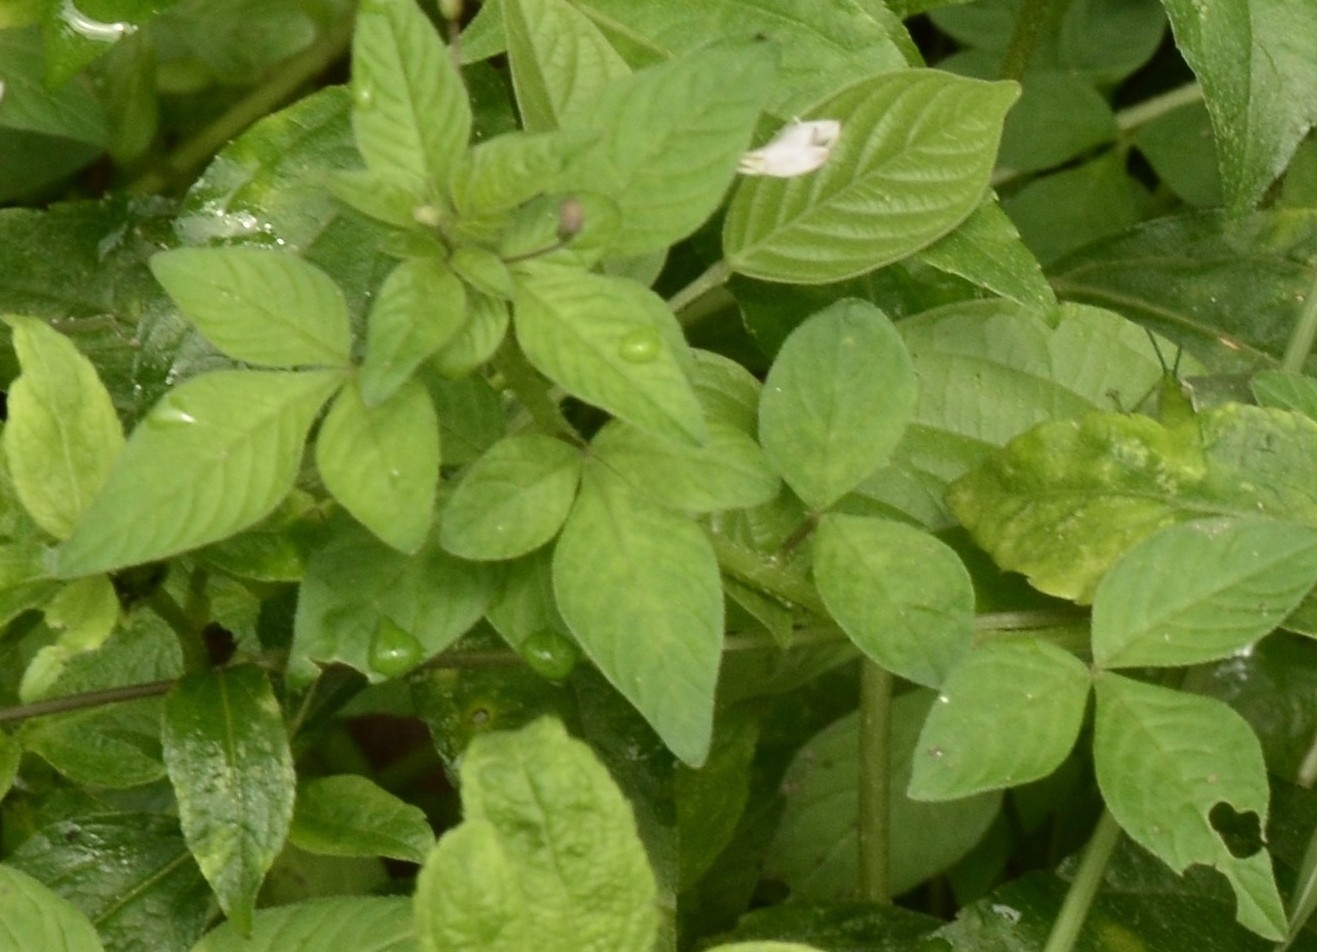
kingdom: Plantae
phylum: Tracheophyta
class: Magnoliopsida
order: Brassicales
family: Cleomaceae
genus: Sieruela
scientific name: Sieruela rutidosperma
